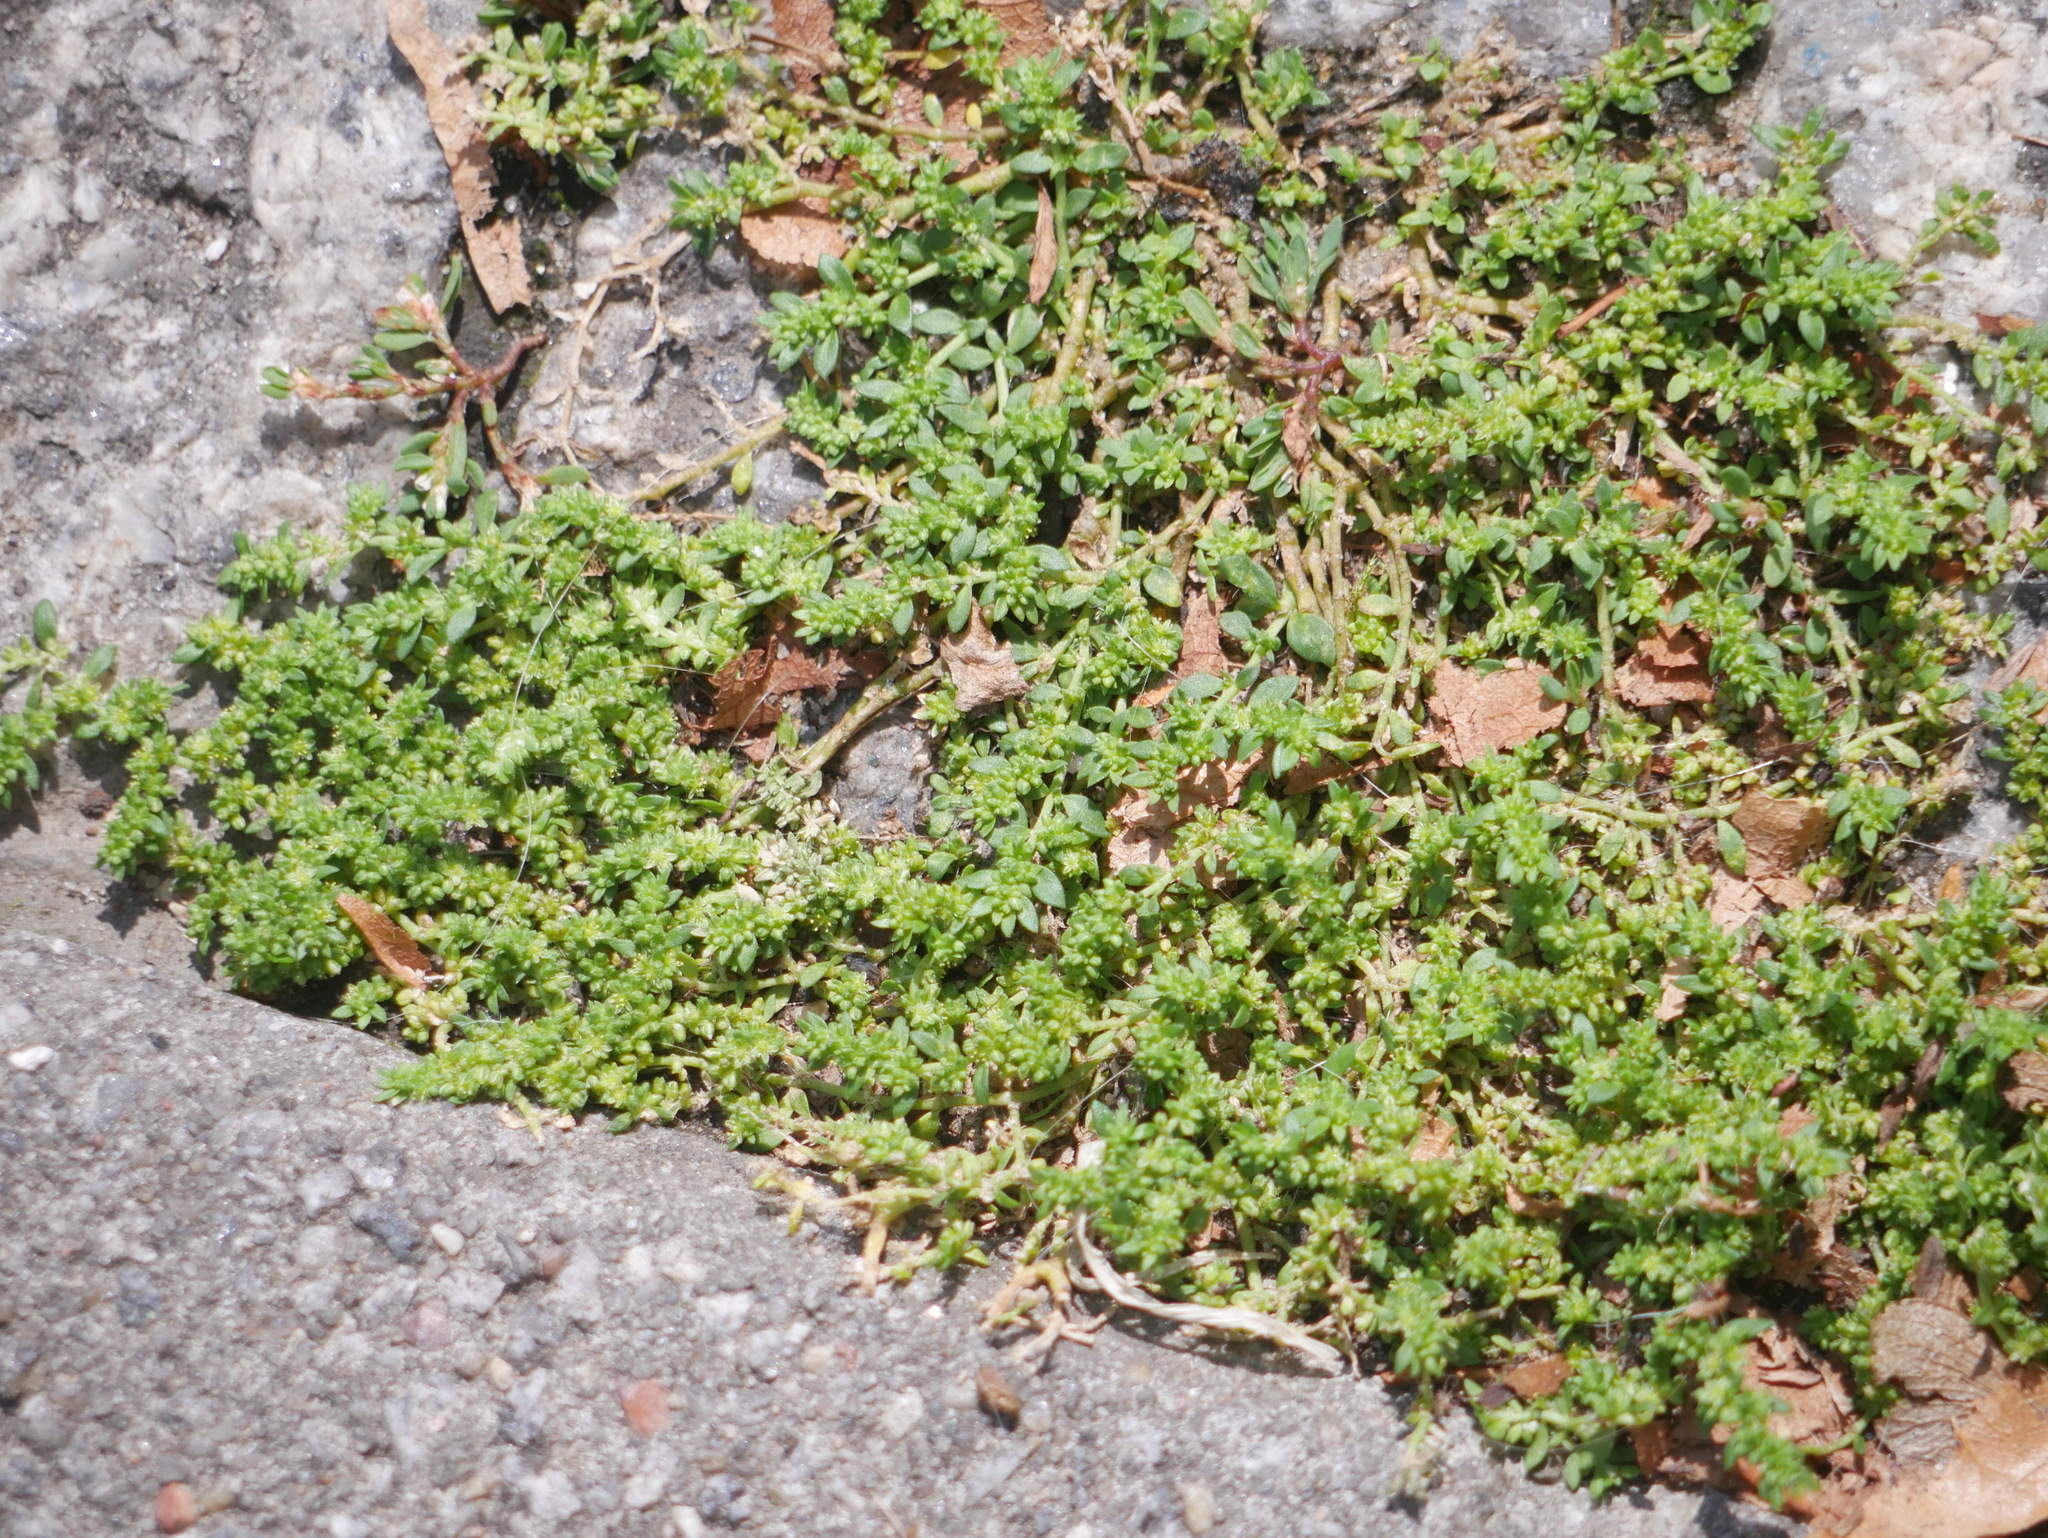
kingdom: Plantae
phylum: Tracheophyta
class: Magnoliopsida
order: Caryophyllales
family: Caryophyllaceae
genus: Herniaria
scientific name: Herniaria glabra
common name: Smooth rupturewort
